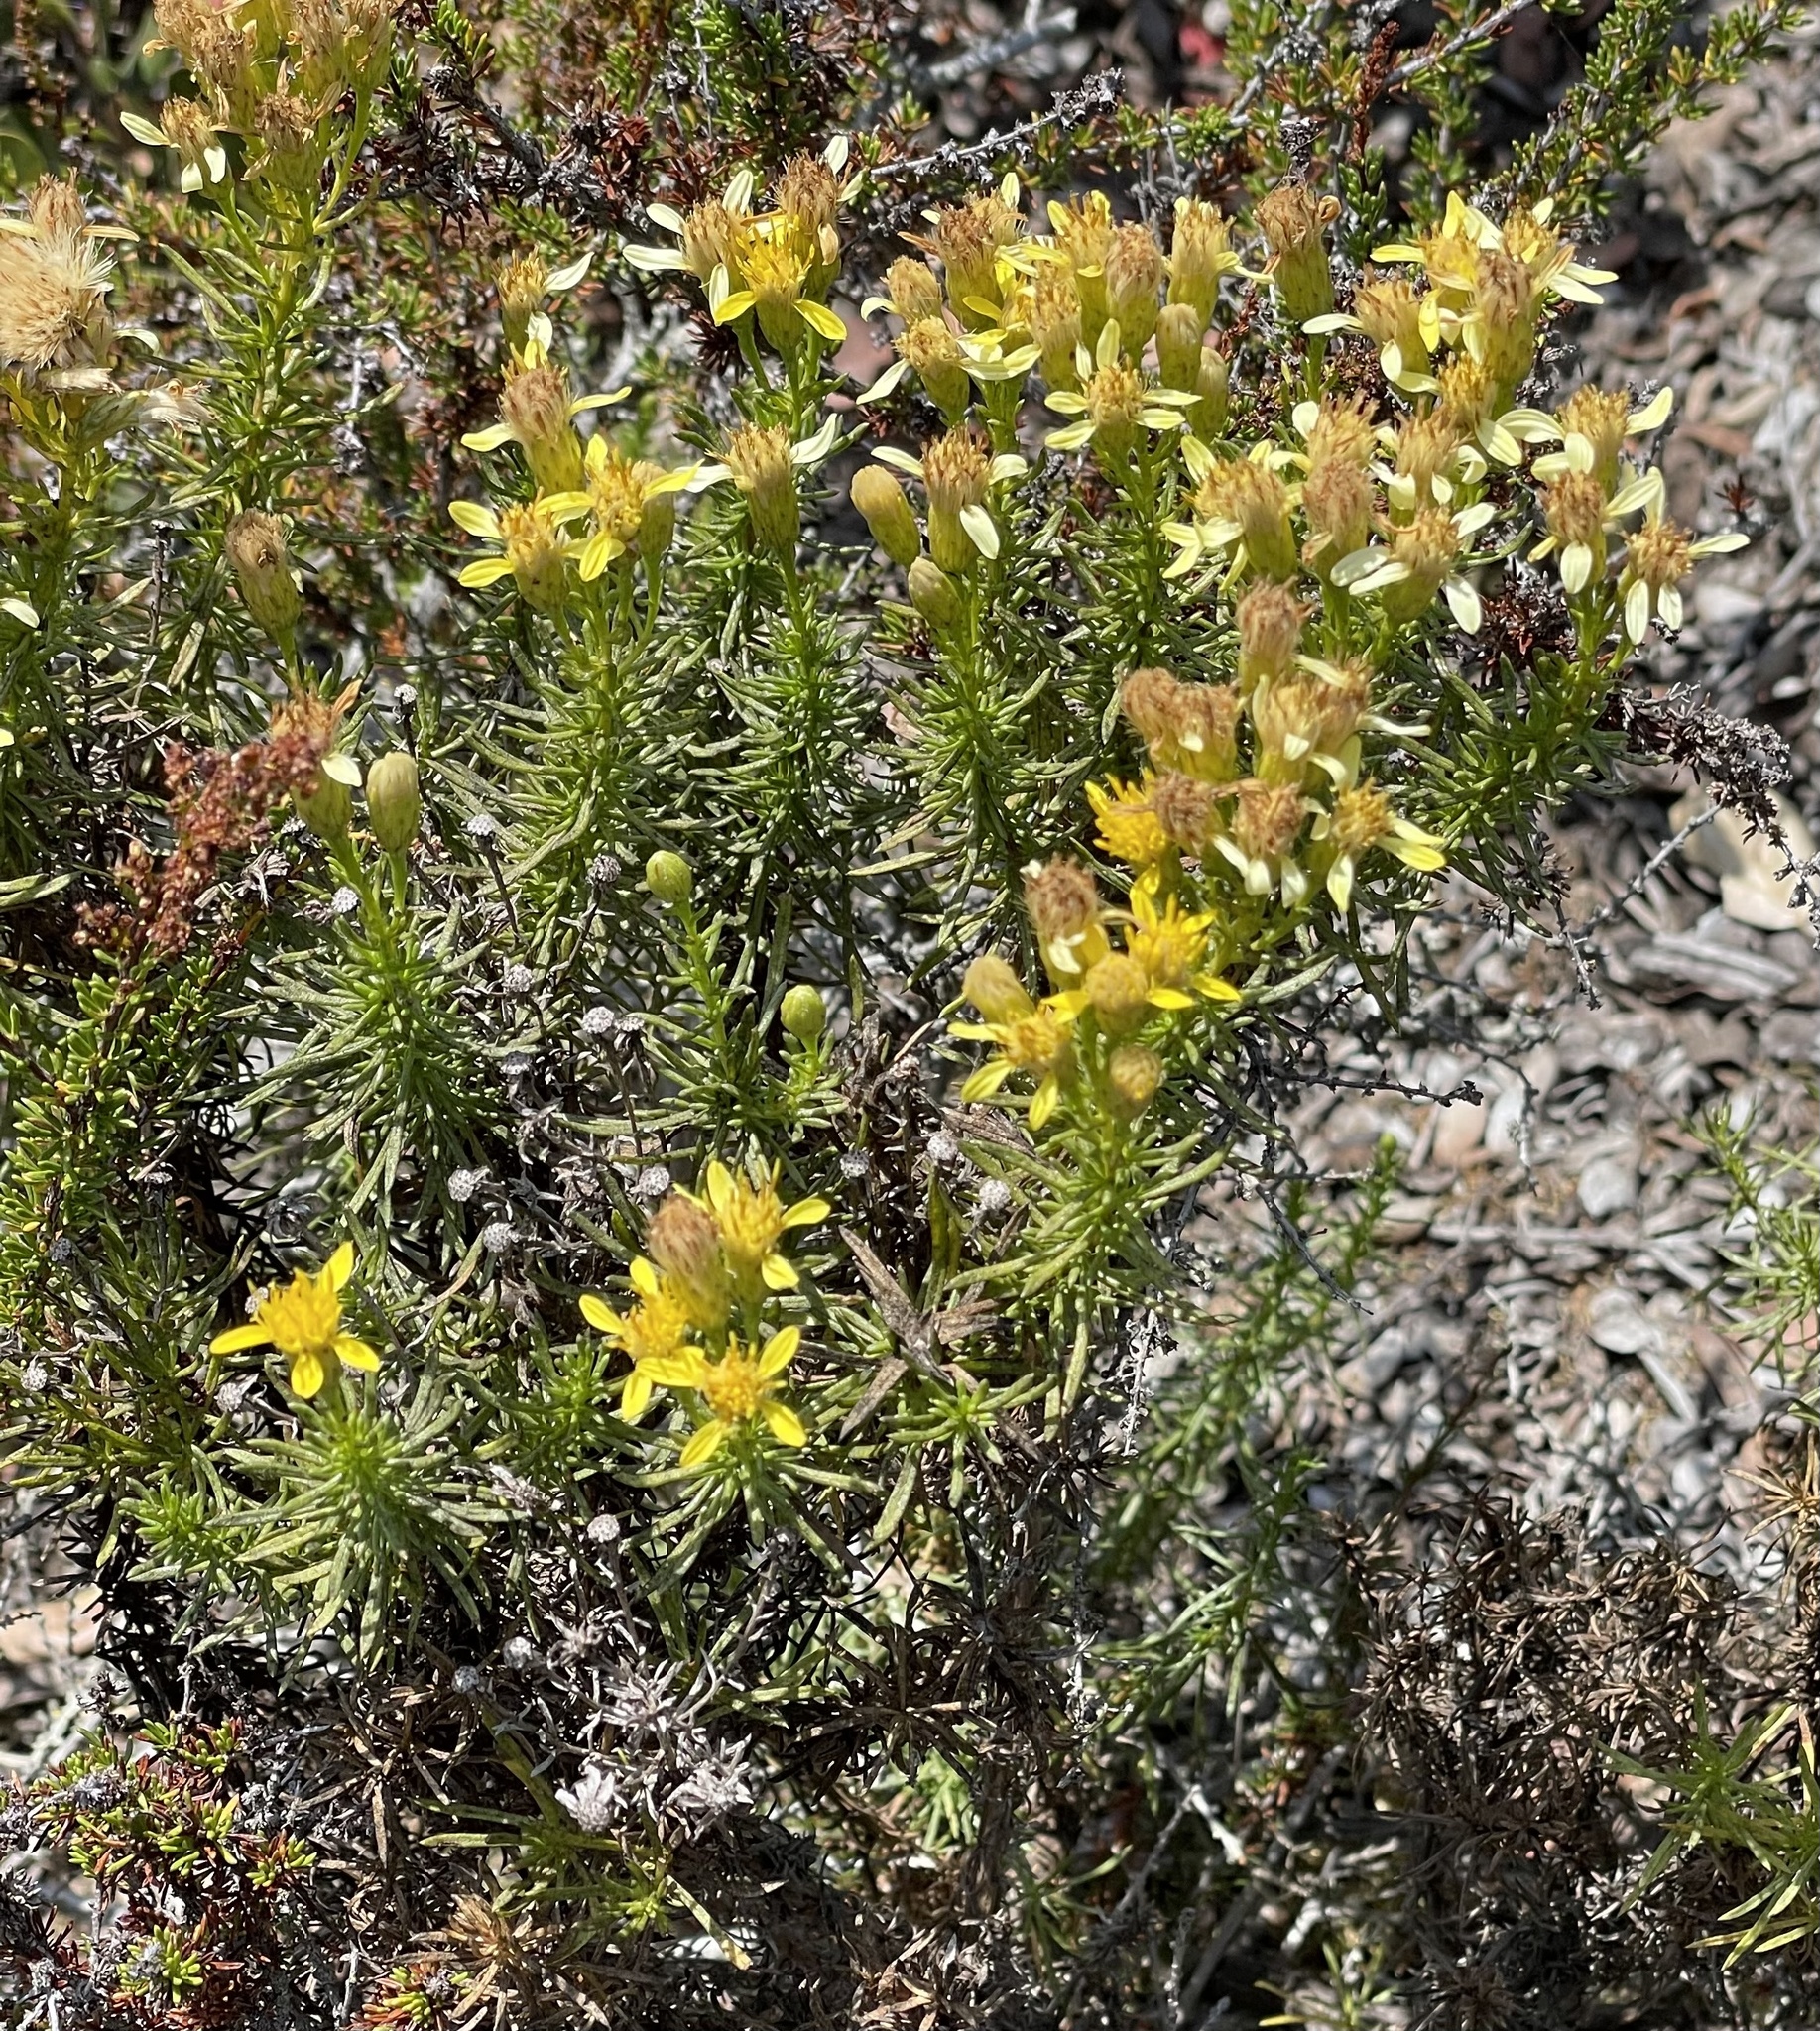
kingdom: Plantae
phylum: Tracheophyta
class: Magnoliopsida
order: Asterales
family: Asteraceae
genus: Ericameria
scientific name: Ericameria fasciculata
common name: Eastwood's goldenbush
